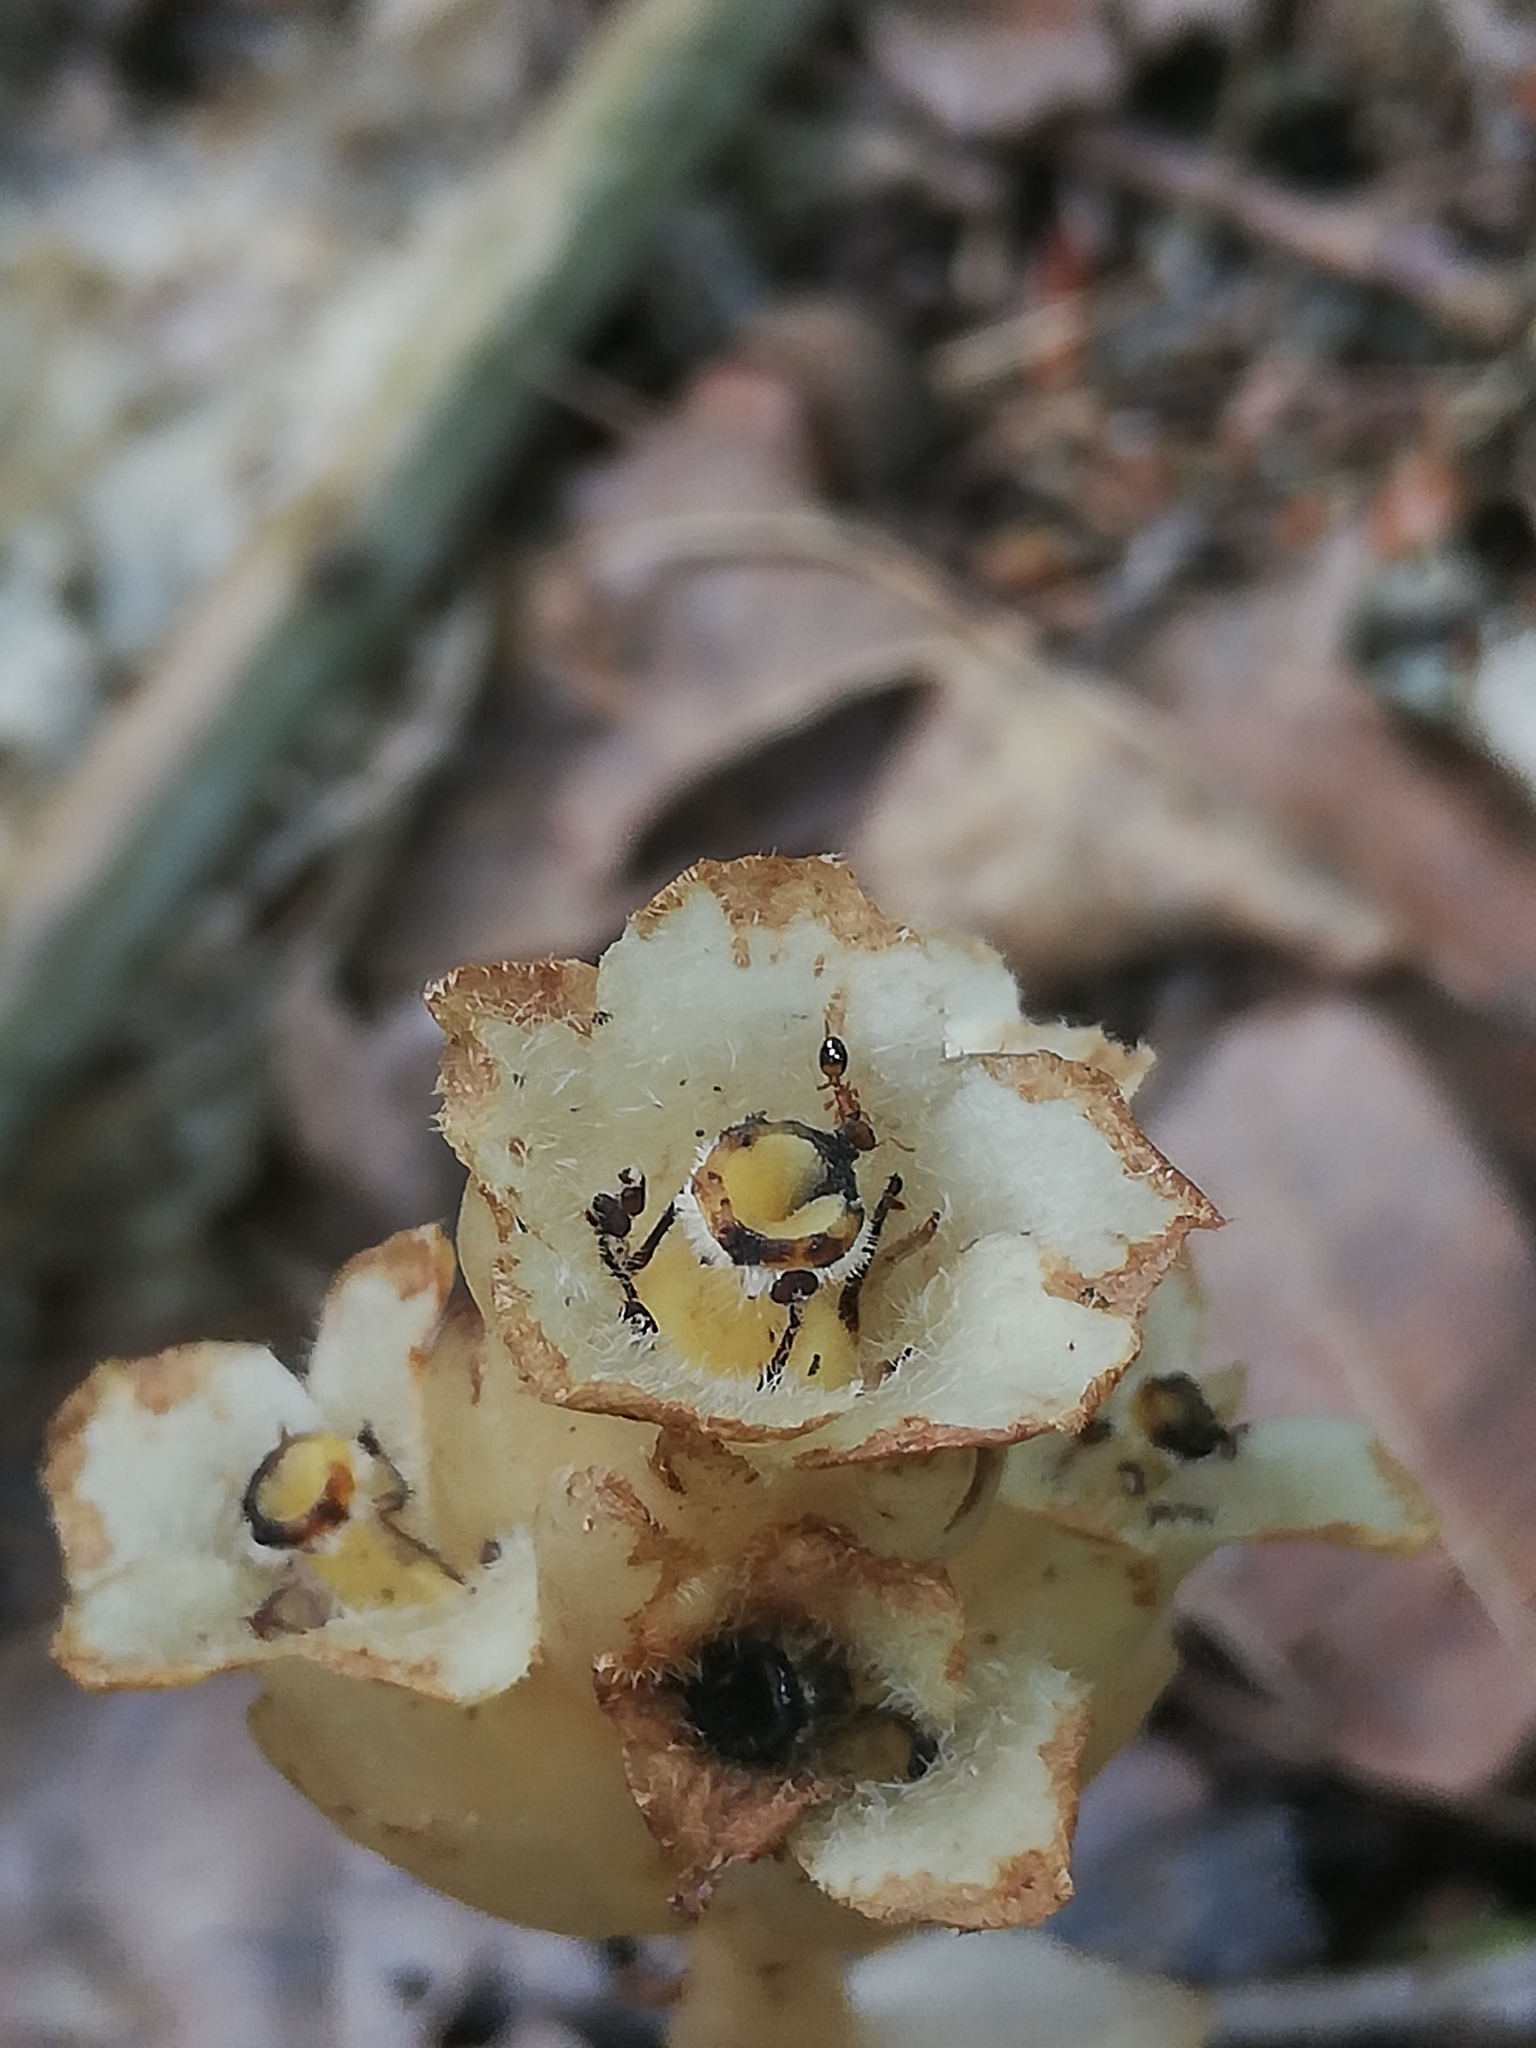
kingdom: Plantae
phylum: Tracheophyta
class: Magnoliopsida
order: Ericales
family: Ericaceae
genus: Hypopitys
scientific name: Hypopitys monotropa
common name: Yellow bird's-nest
